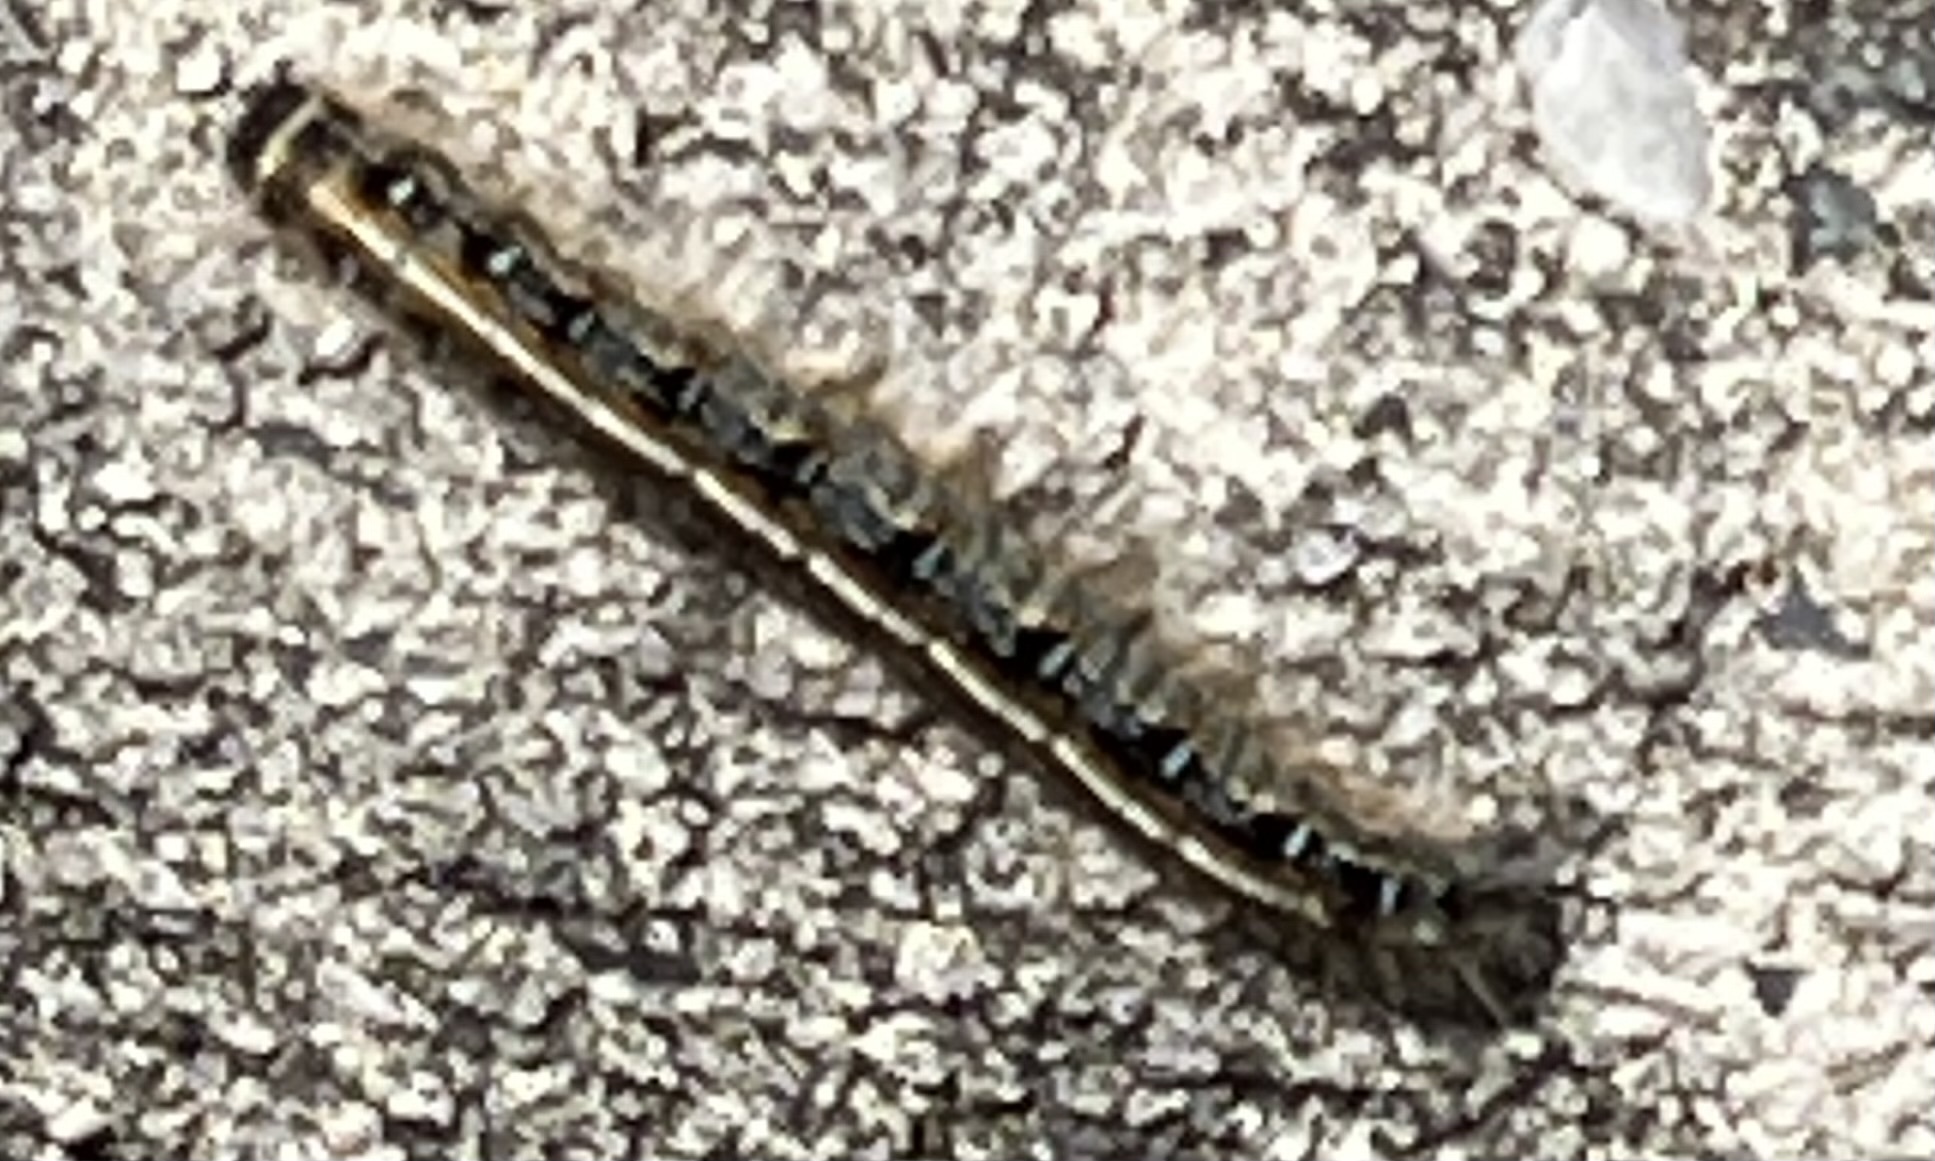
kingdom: Animalia
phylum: Arthropoda
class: Insecta
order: Lepidoptera
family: Lasiocampidae
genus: Malacosoma
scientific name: Malacosoma americana
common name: Eastern tent caterpillar moth
